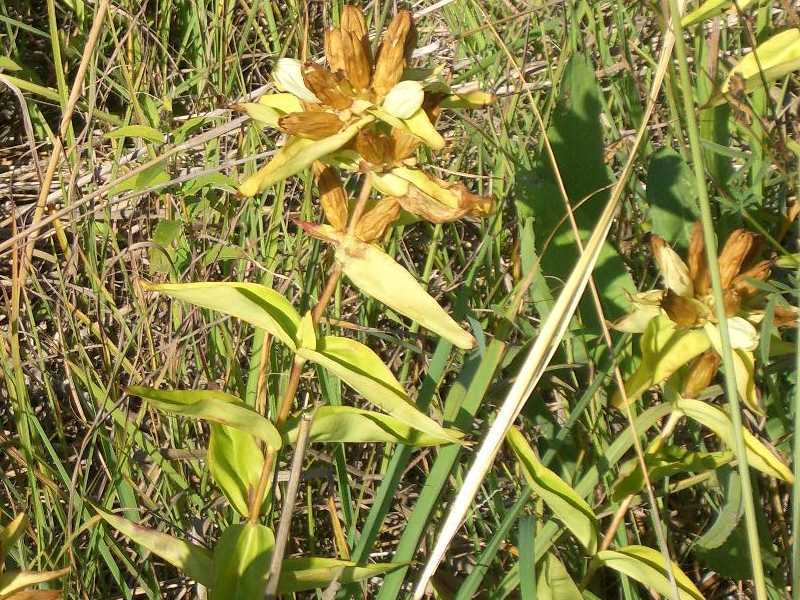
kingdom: Plantae
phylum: Tracheophyta
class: Magnoliopsida
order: Gentianales
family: Gentianaceae
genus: Gentiana
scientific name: Gentiana alba
